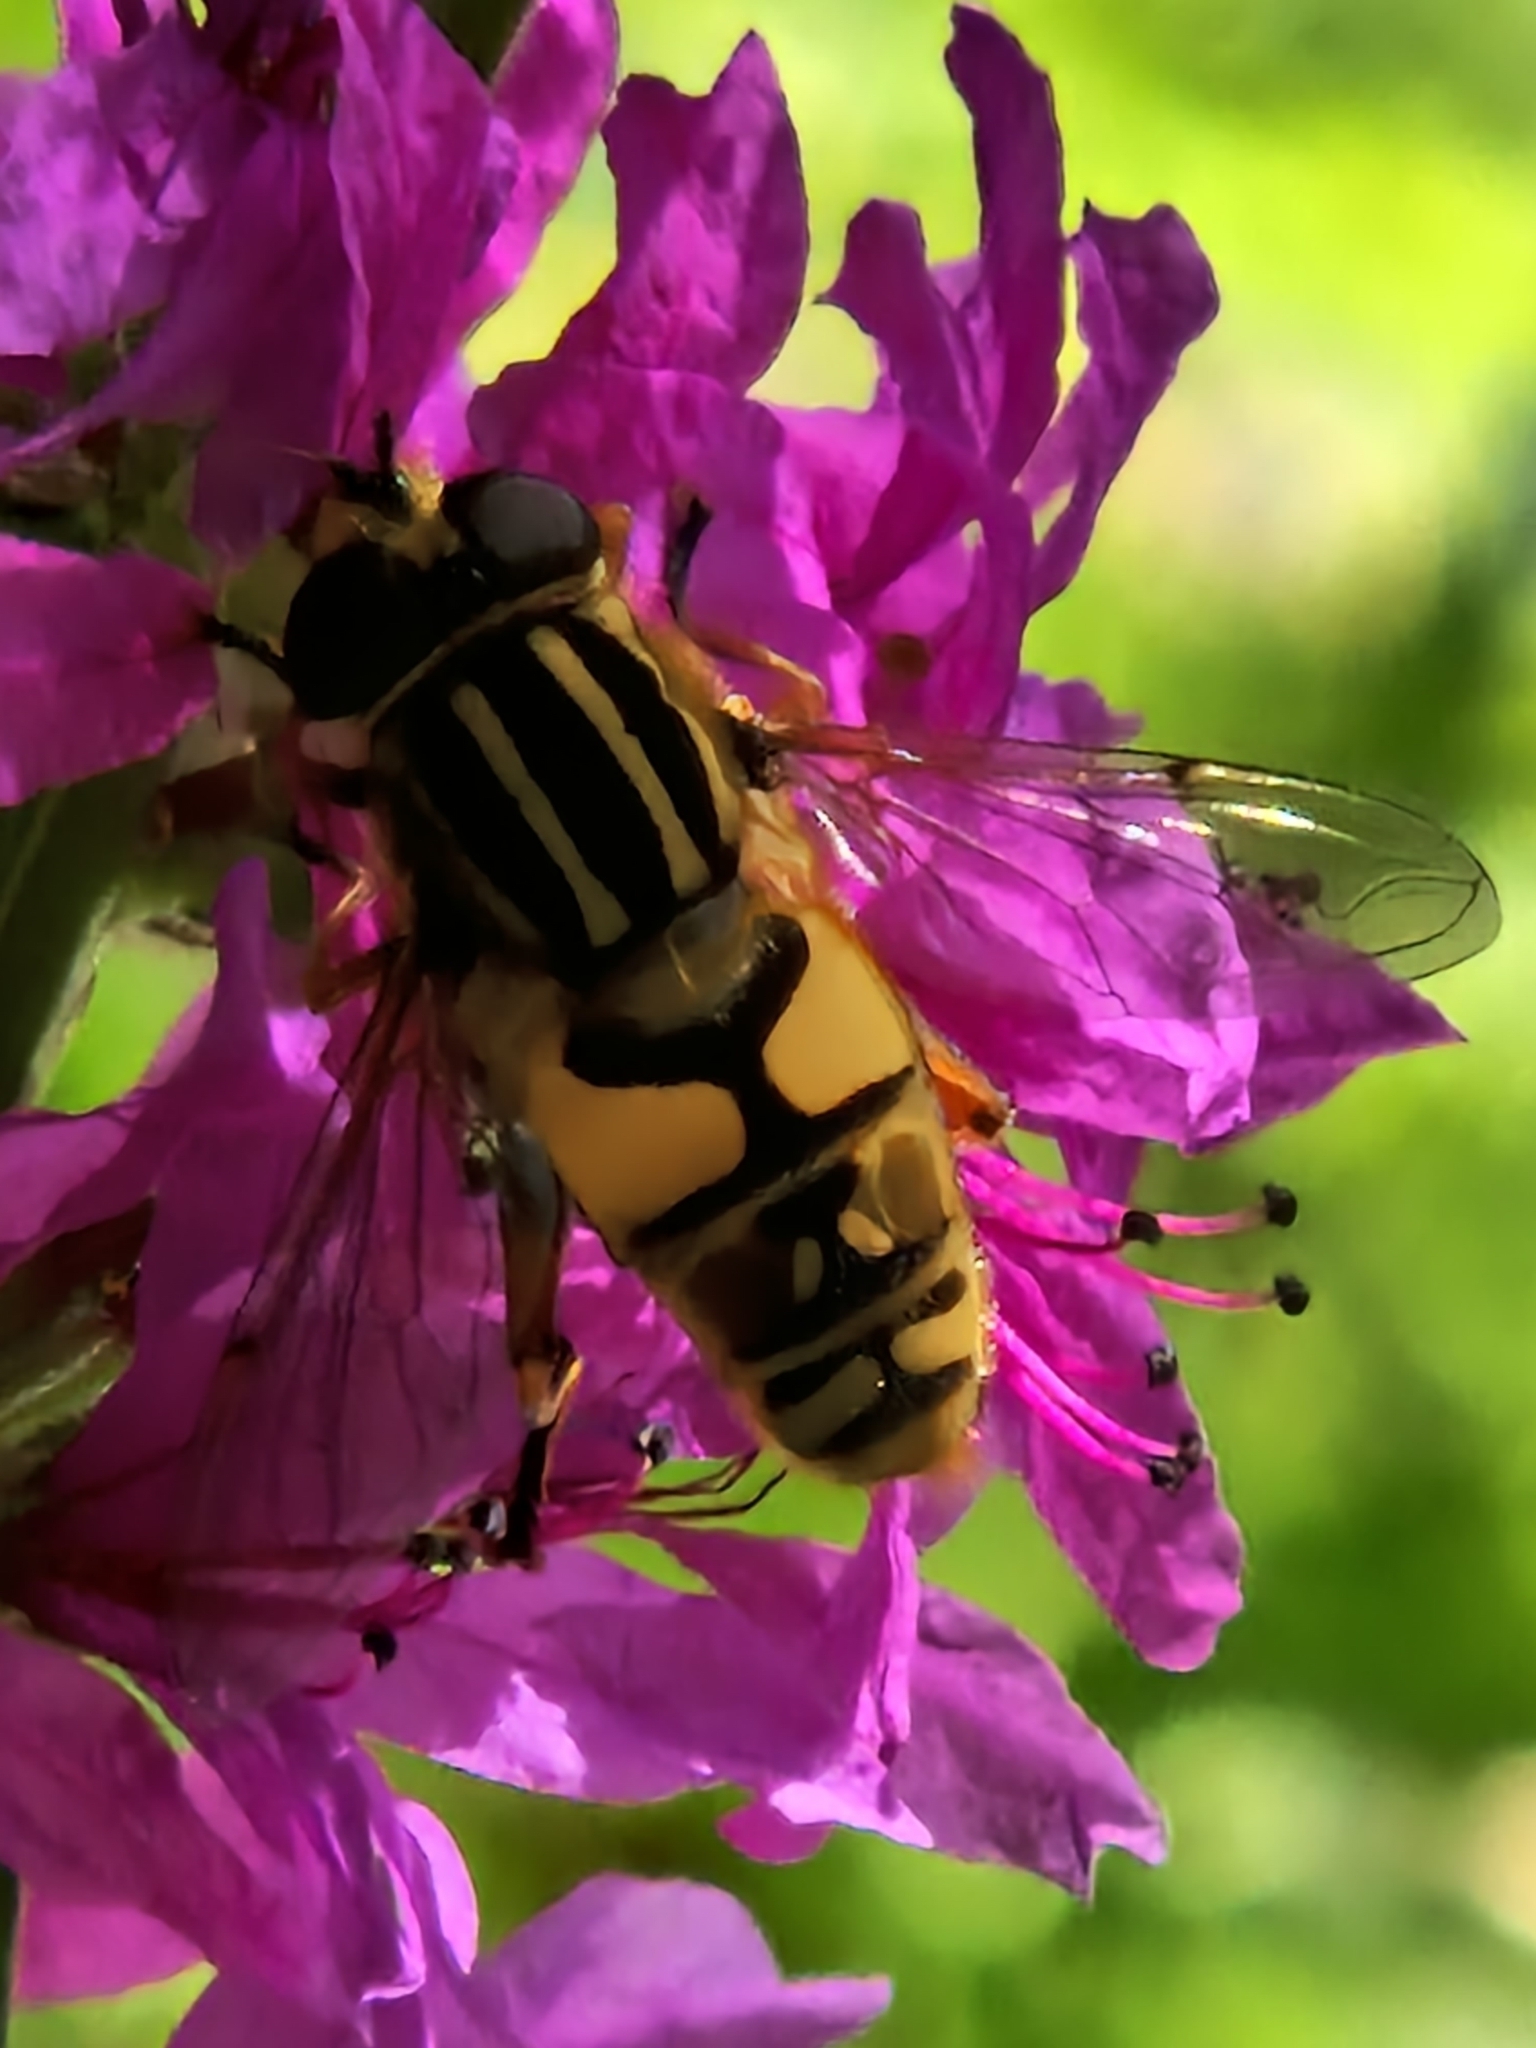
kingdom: Animalia
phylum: Arthropoda
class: Insecta
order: Diptera
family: Syrphidae
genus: Helophilus
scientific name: Helophilus pendulus
